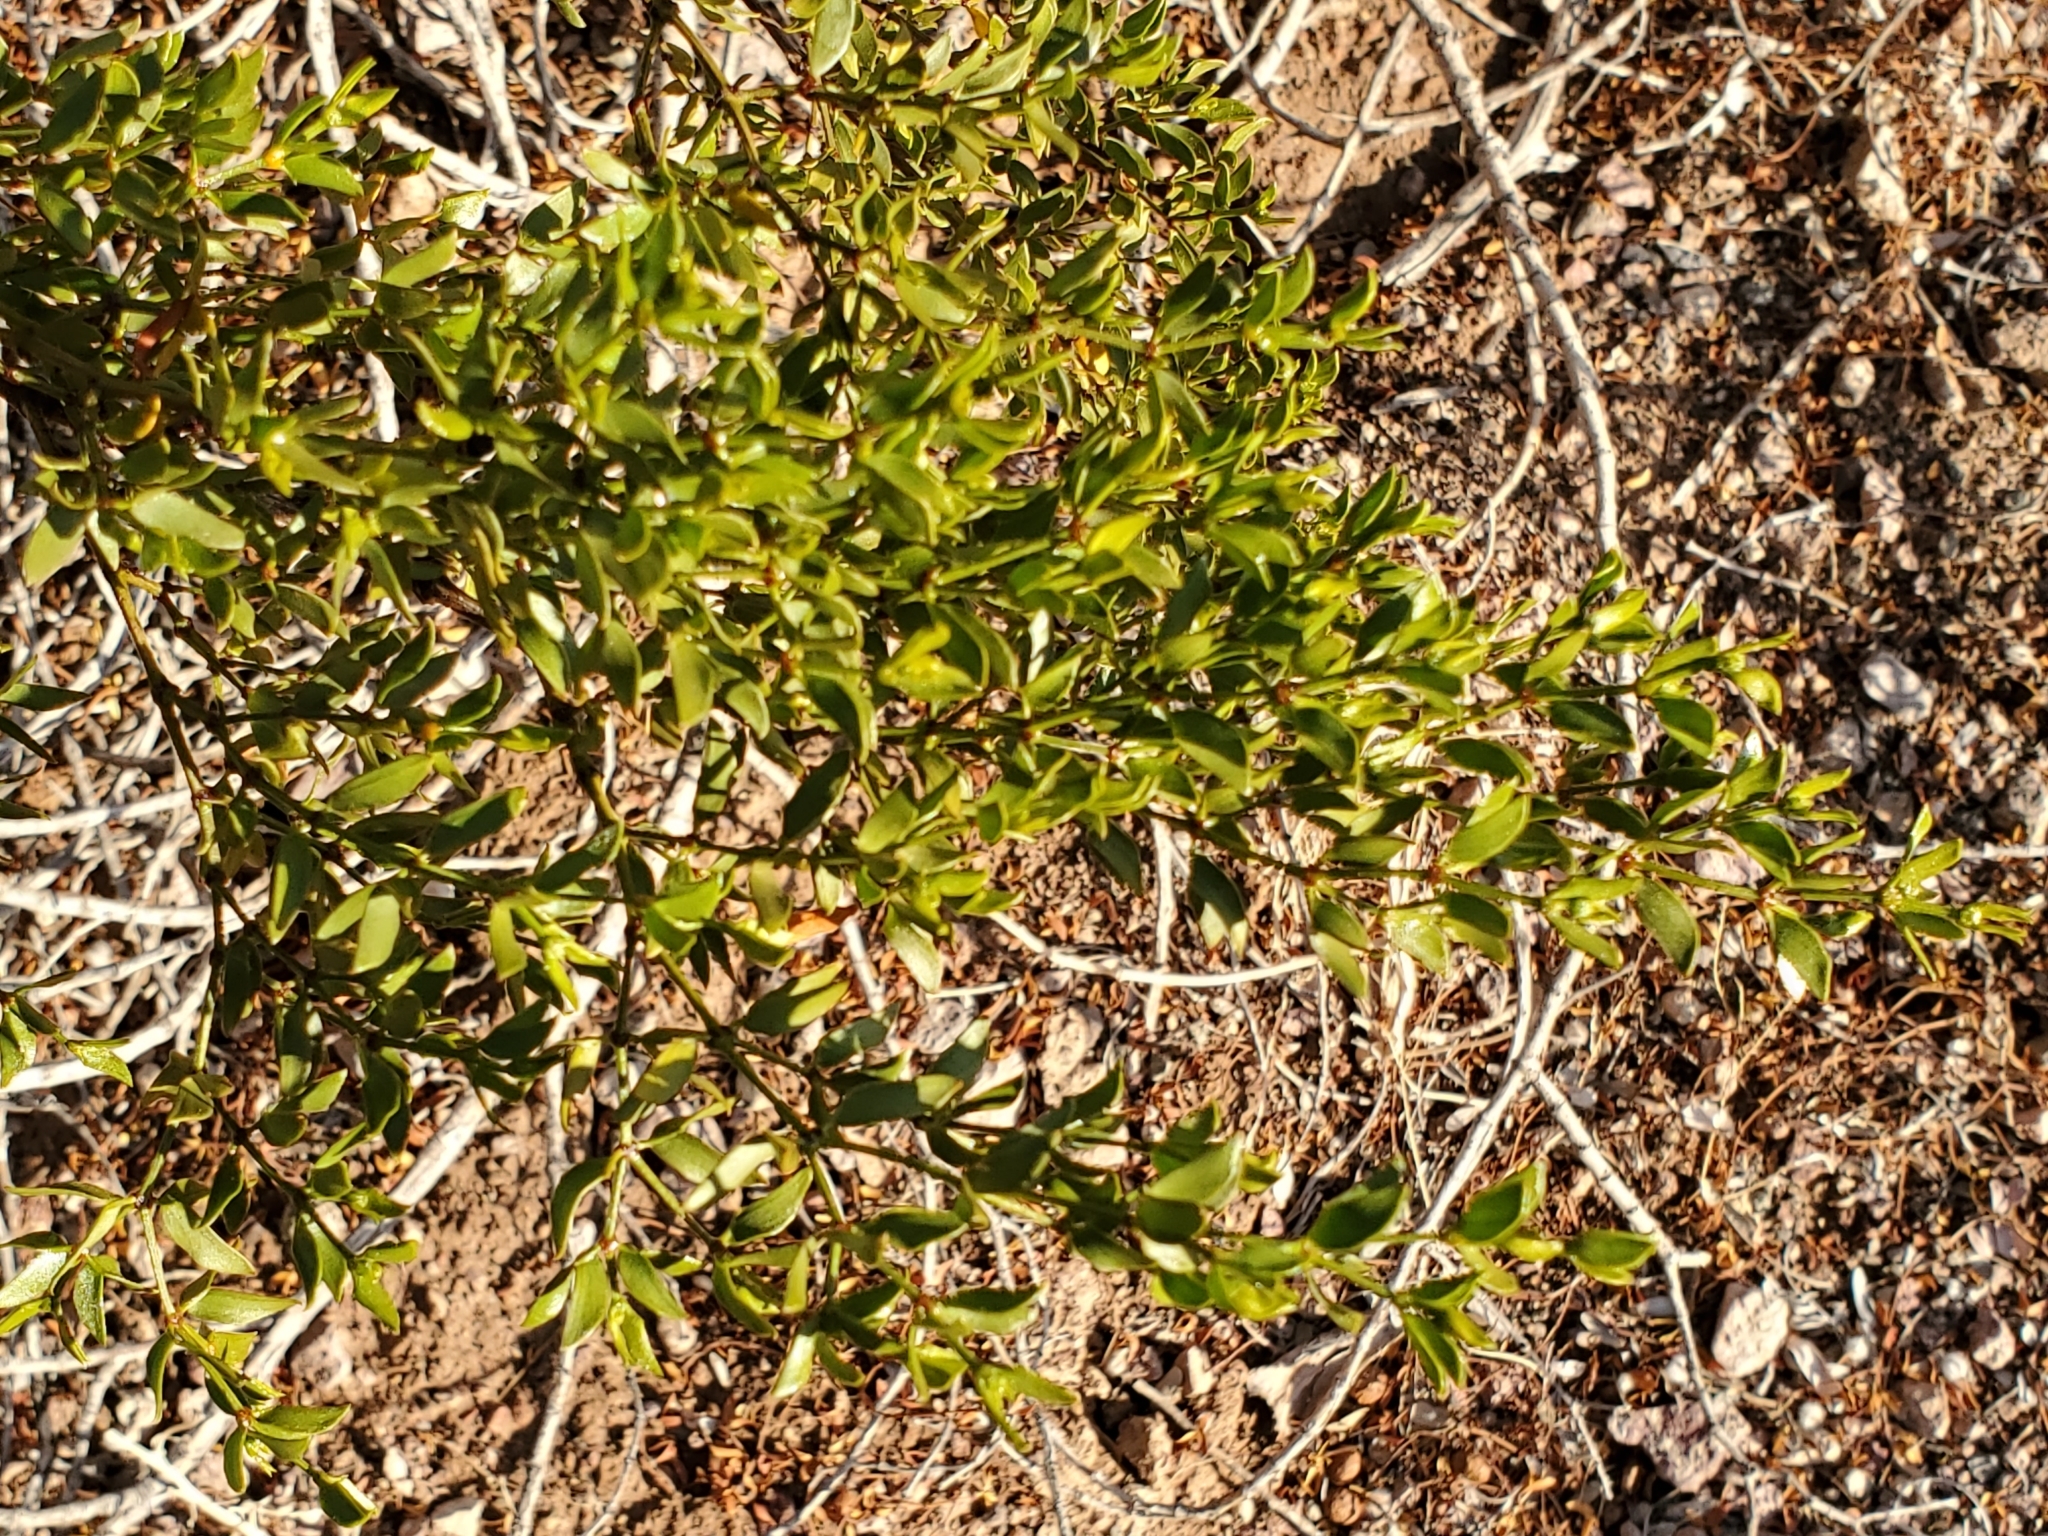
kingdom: Plantae
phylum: Tracheophyta
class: Magnoliopsida
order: Zygophyllales
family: Zygophyllaceae
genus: Larrea
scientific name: Larrea tridentata
